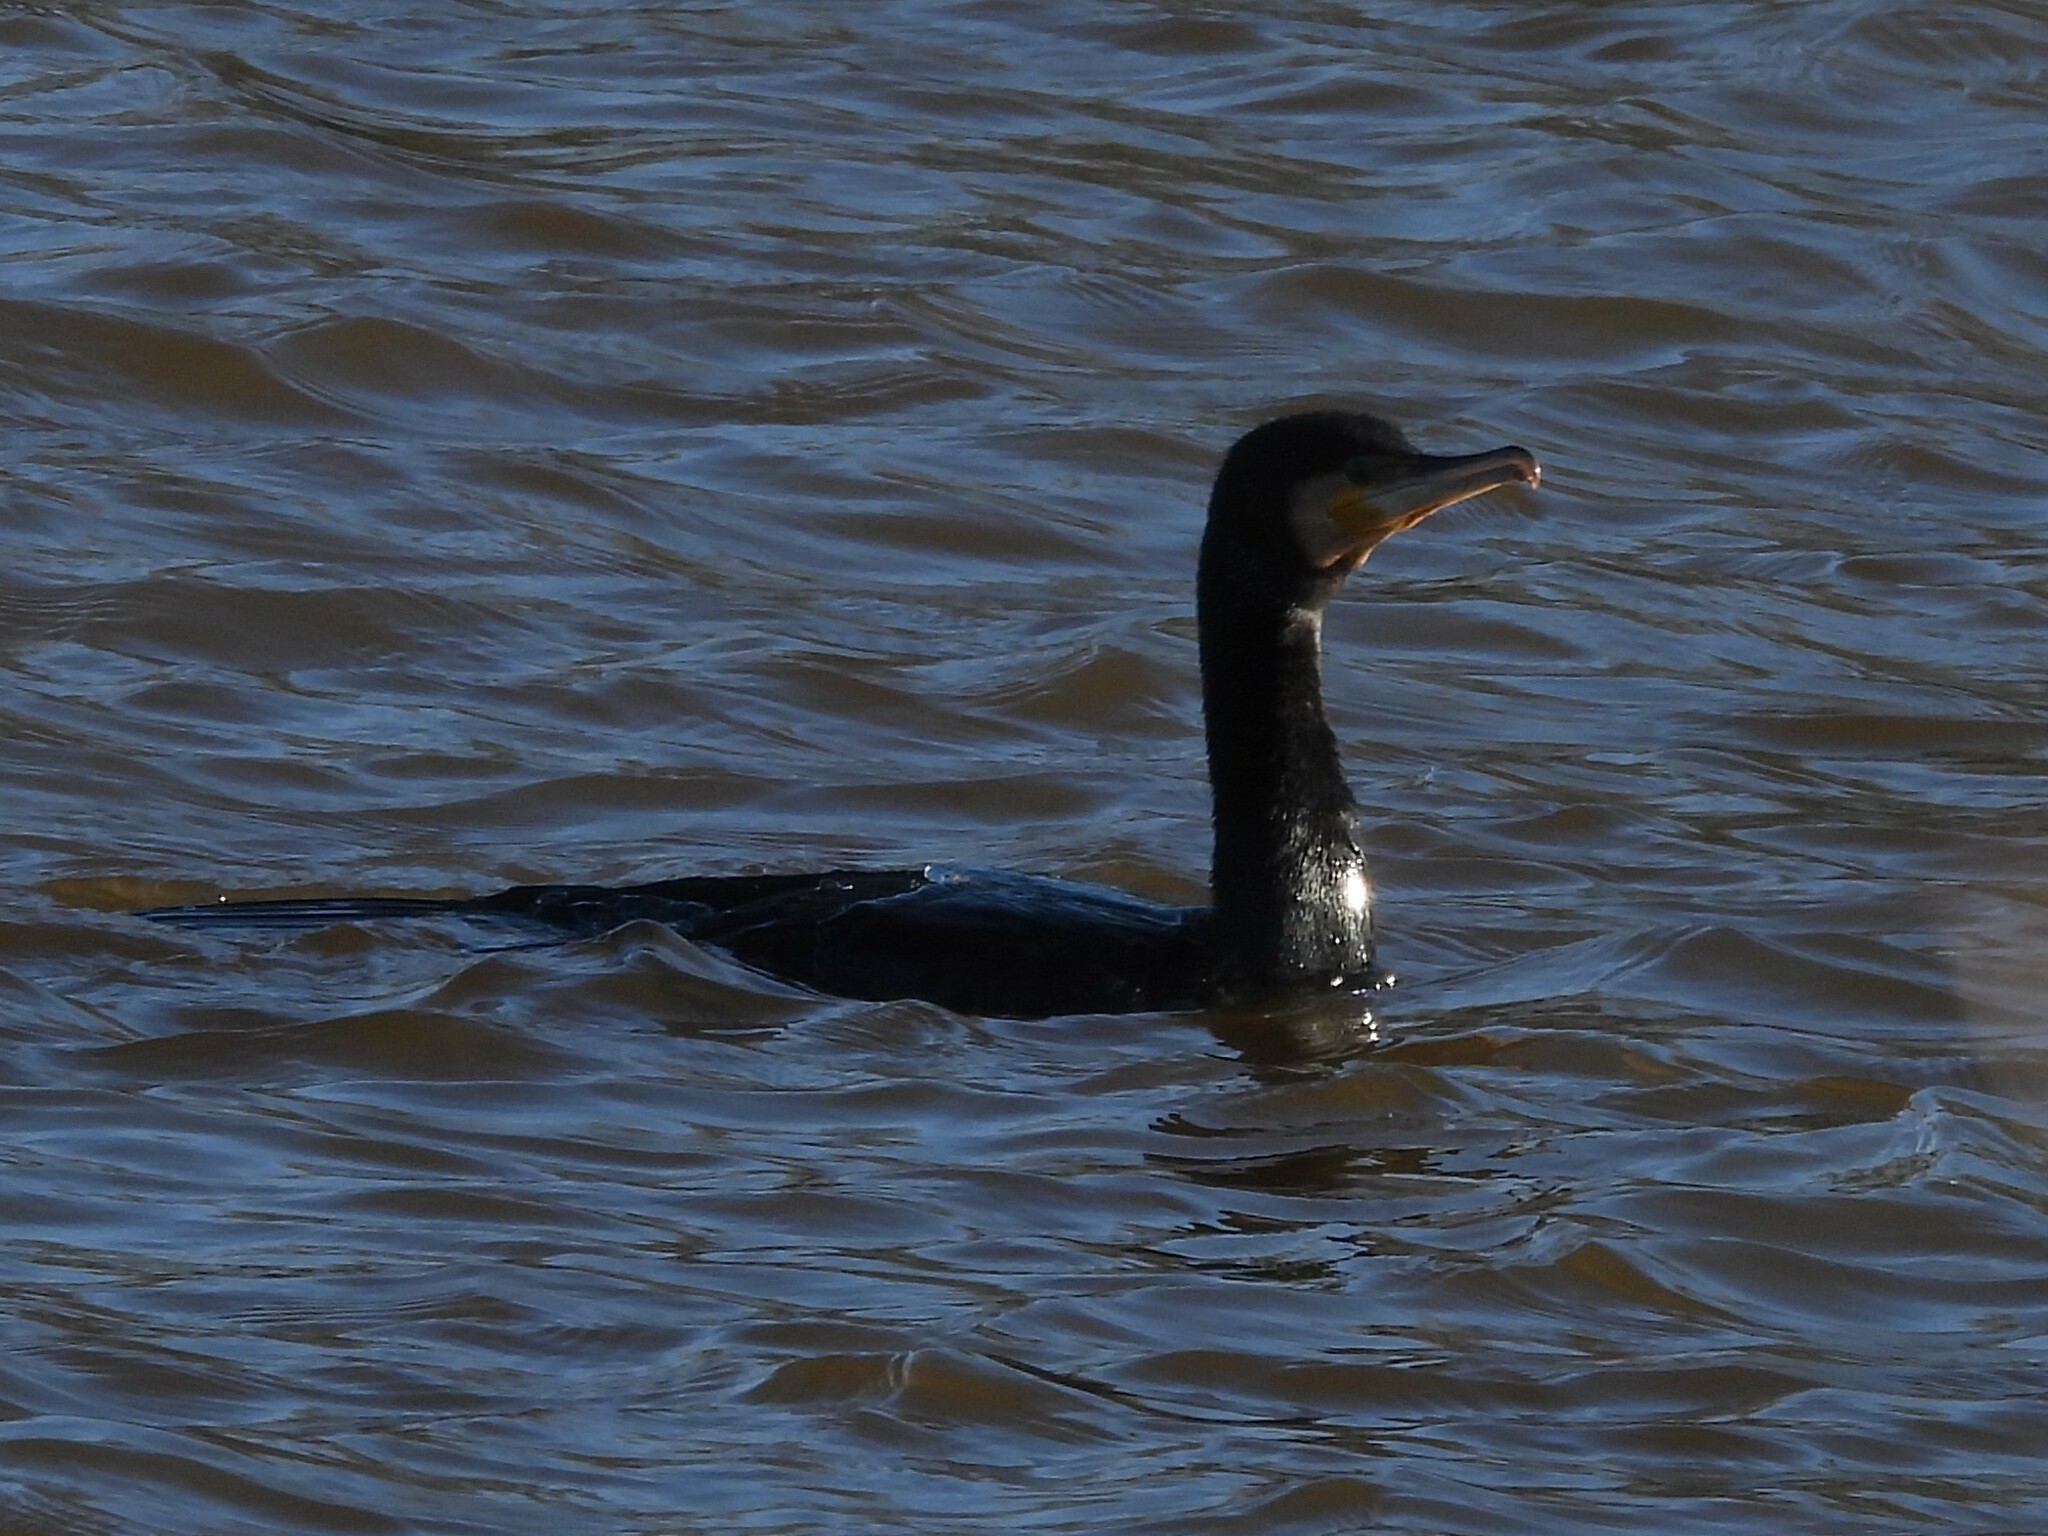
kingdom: Animalia
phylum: Chordata
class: Aves
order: Suliformes
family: Phalacrocoracidae
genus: Phalacrocorax
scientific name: Phalacrocorax carbo
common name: Great cormorant
